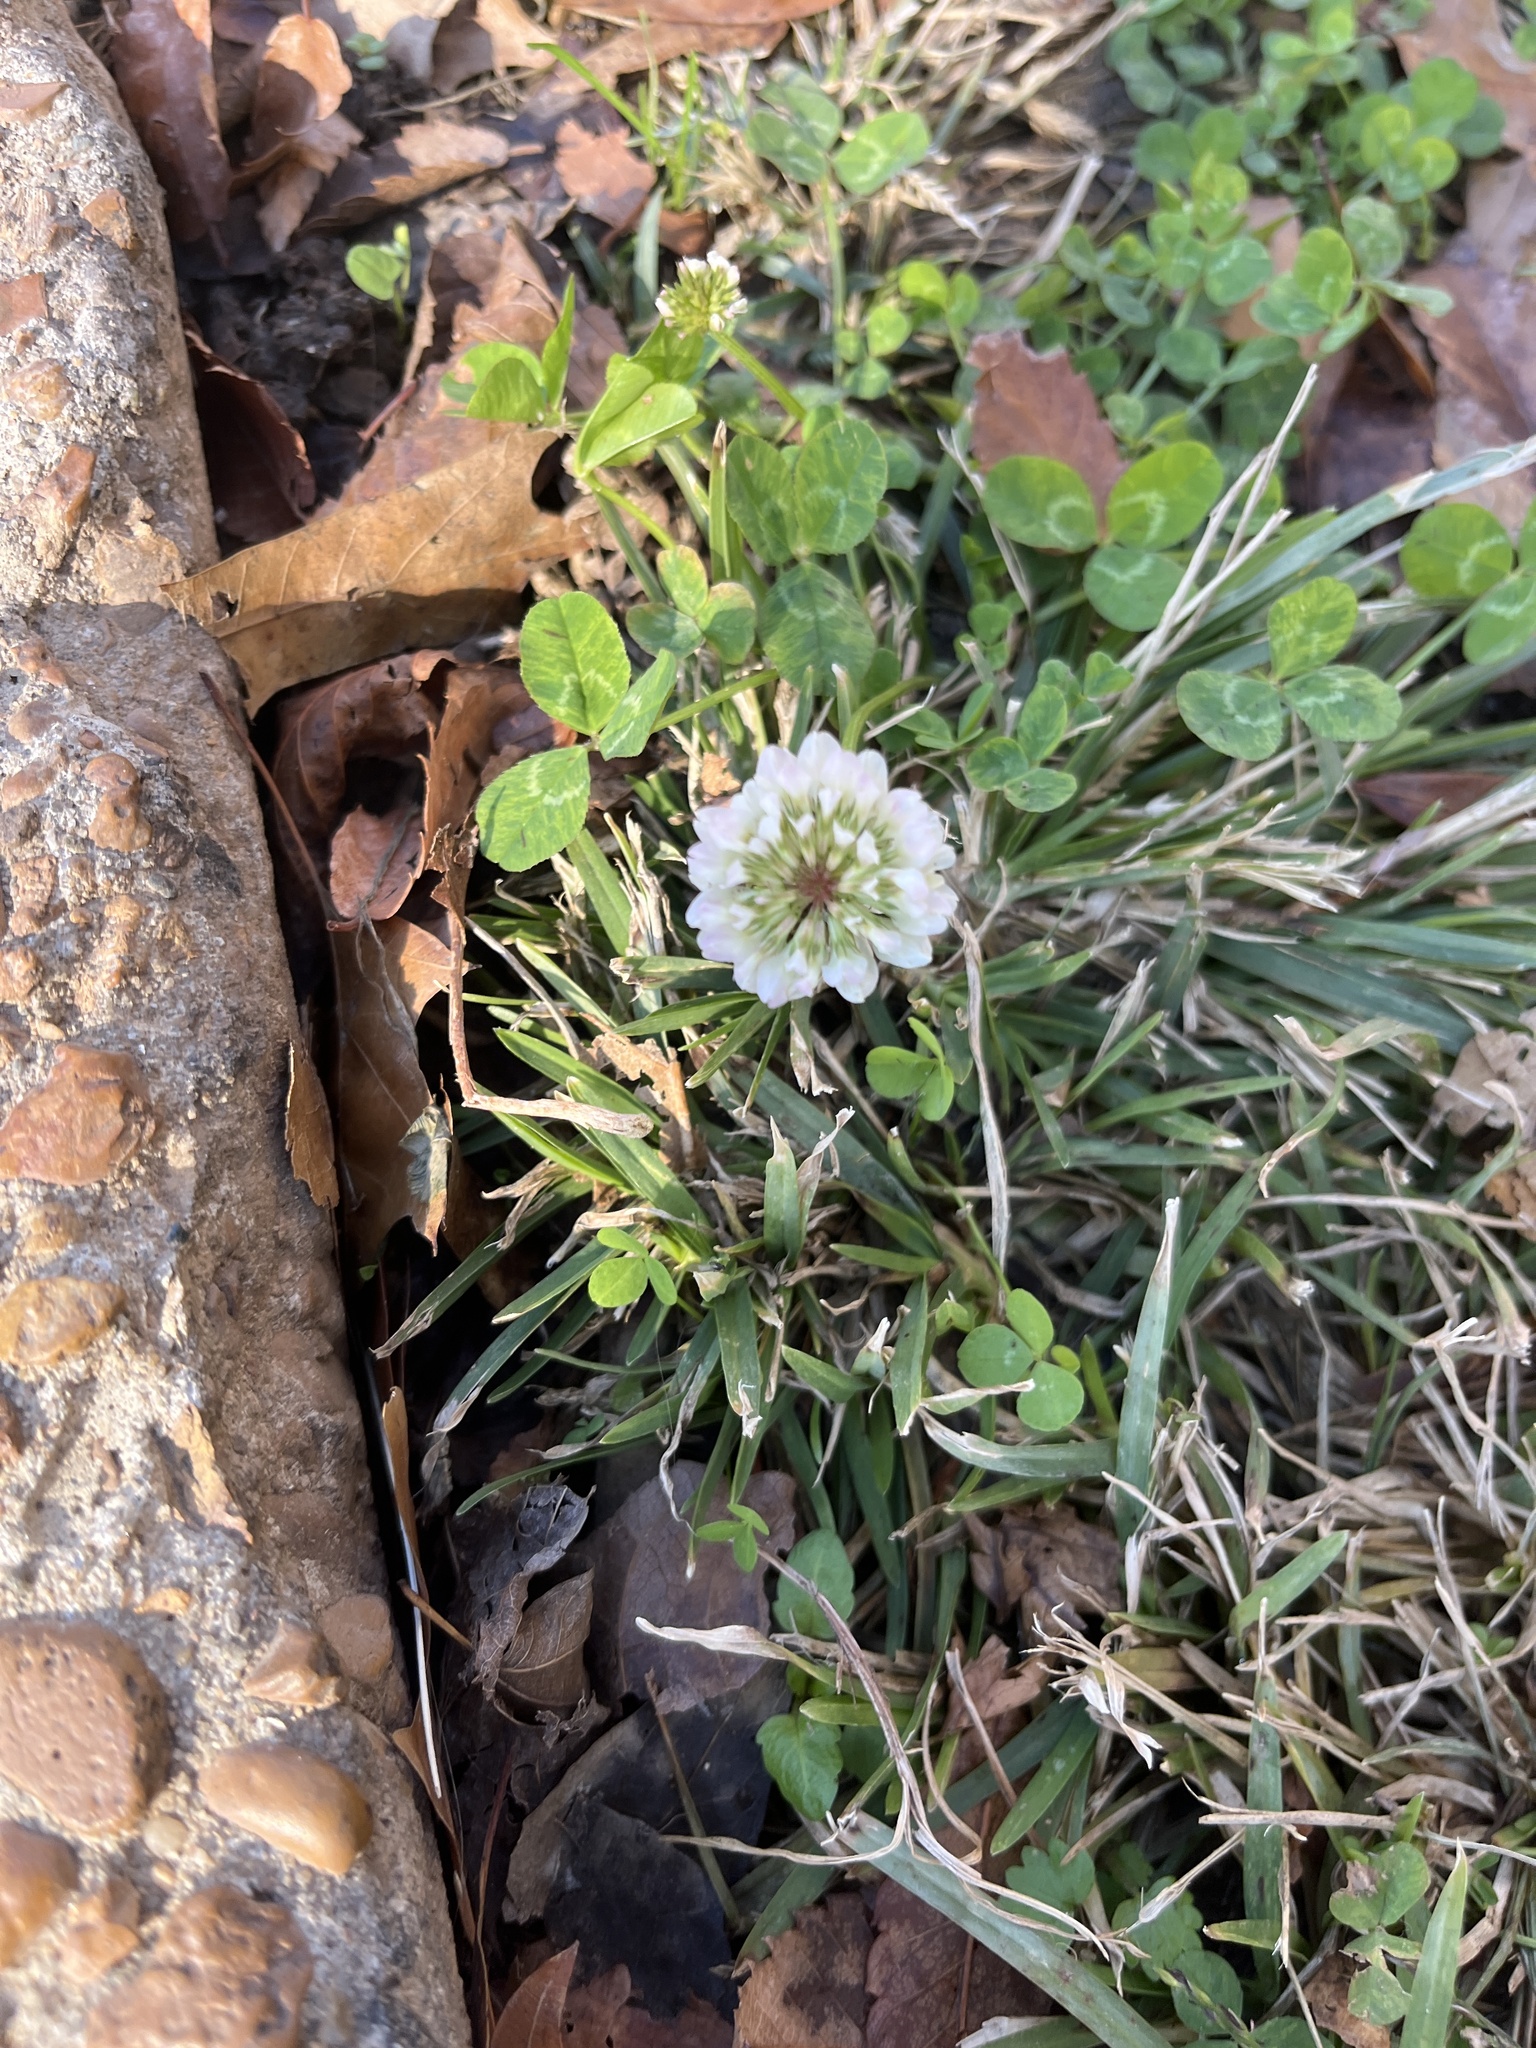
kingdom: Plantae
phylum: Tracheophyta
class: Magnoliopsida
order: Fabales
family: Fabaceae
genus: Trifolium
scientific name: Trifolium repens
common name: White clover
